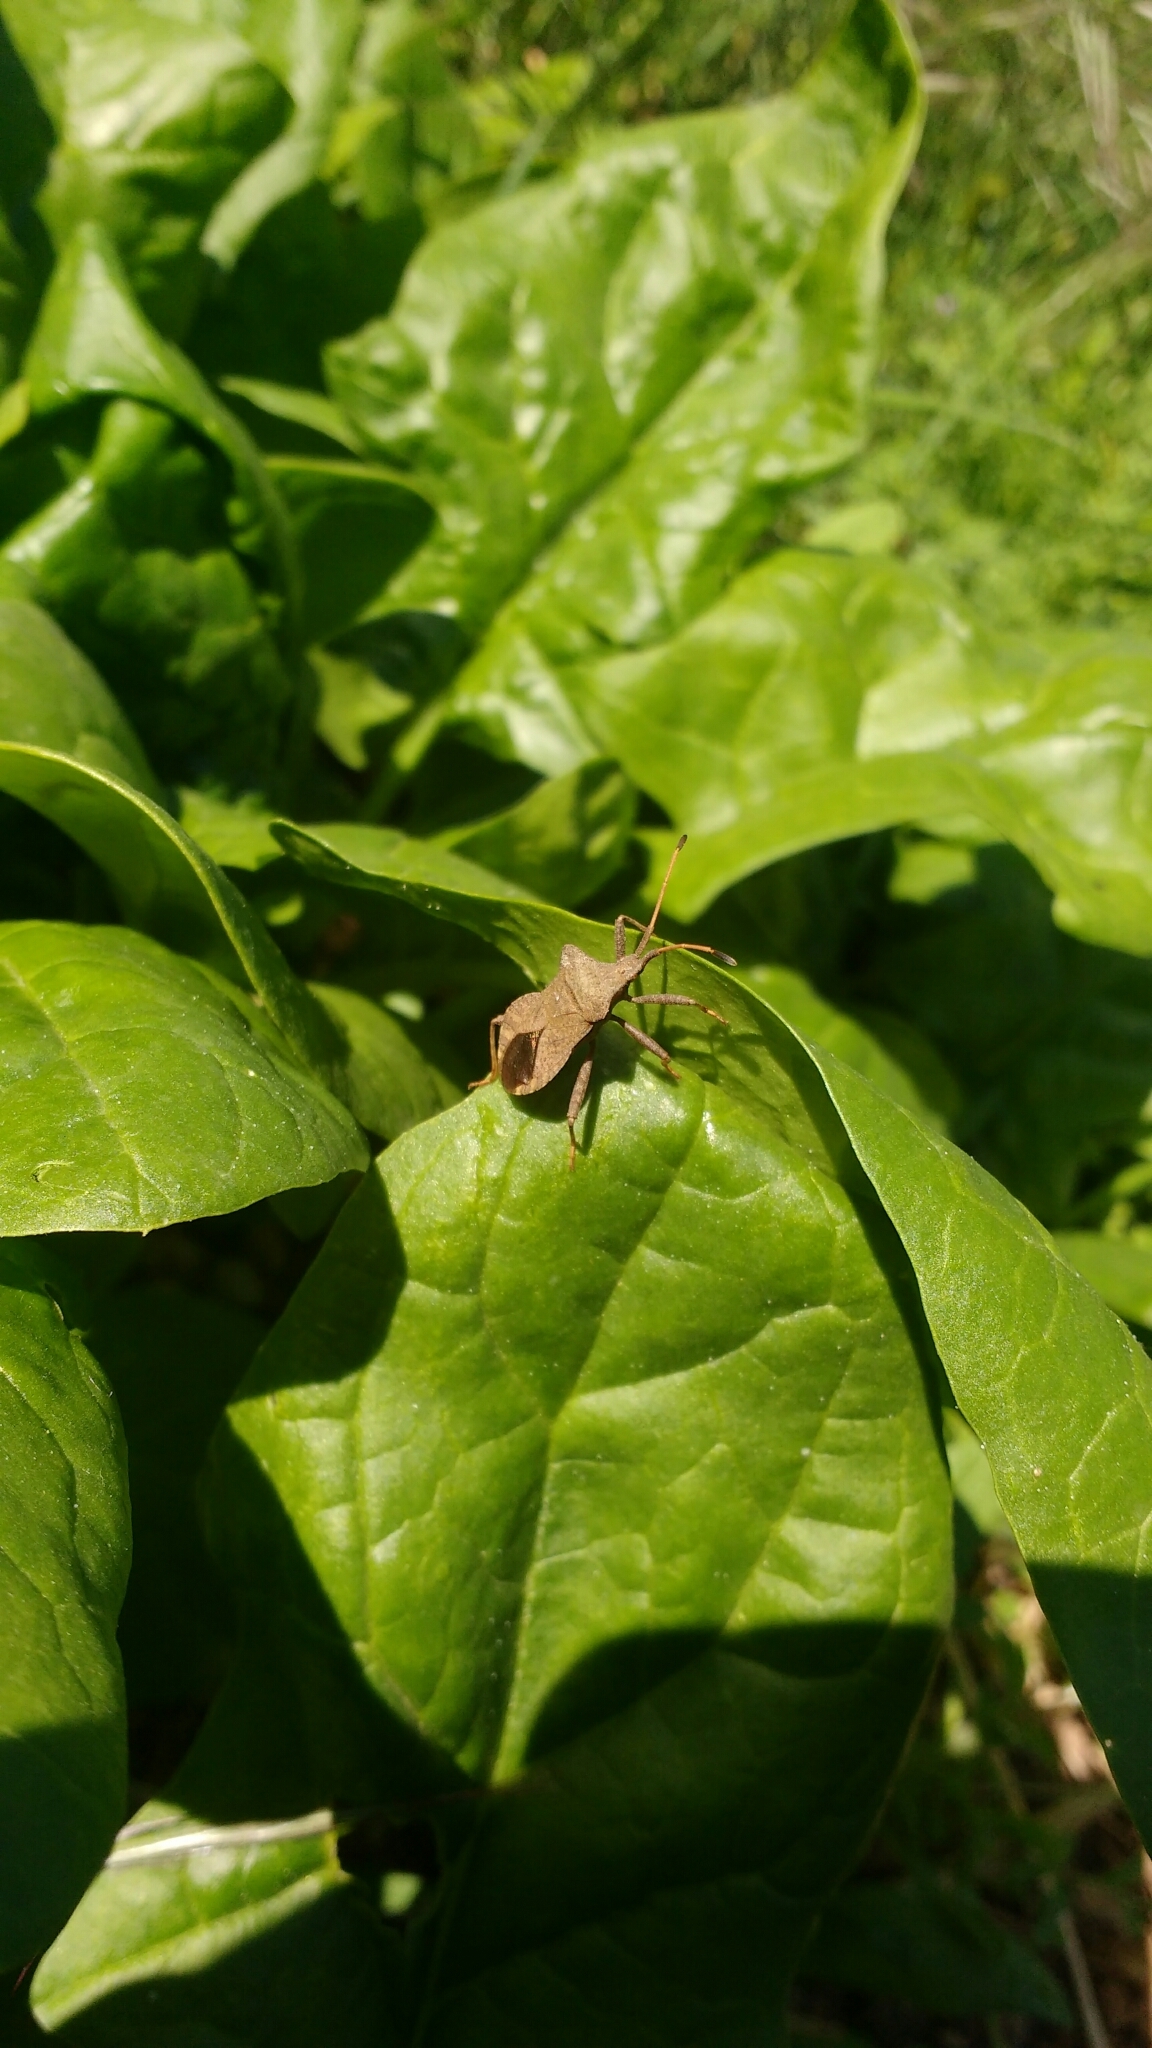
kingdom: Animalia
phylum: Arthropoda
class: Insecta
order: Hemiptera
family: Coreidae
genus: Coreus
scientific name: Coreus marginatus
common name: Dock bug
